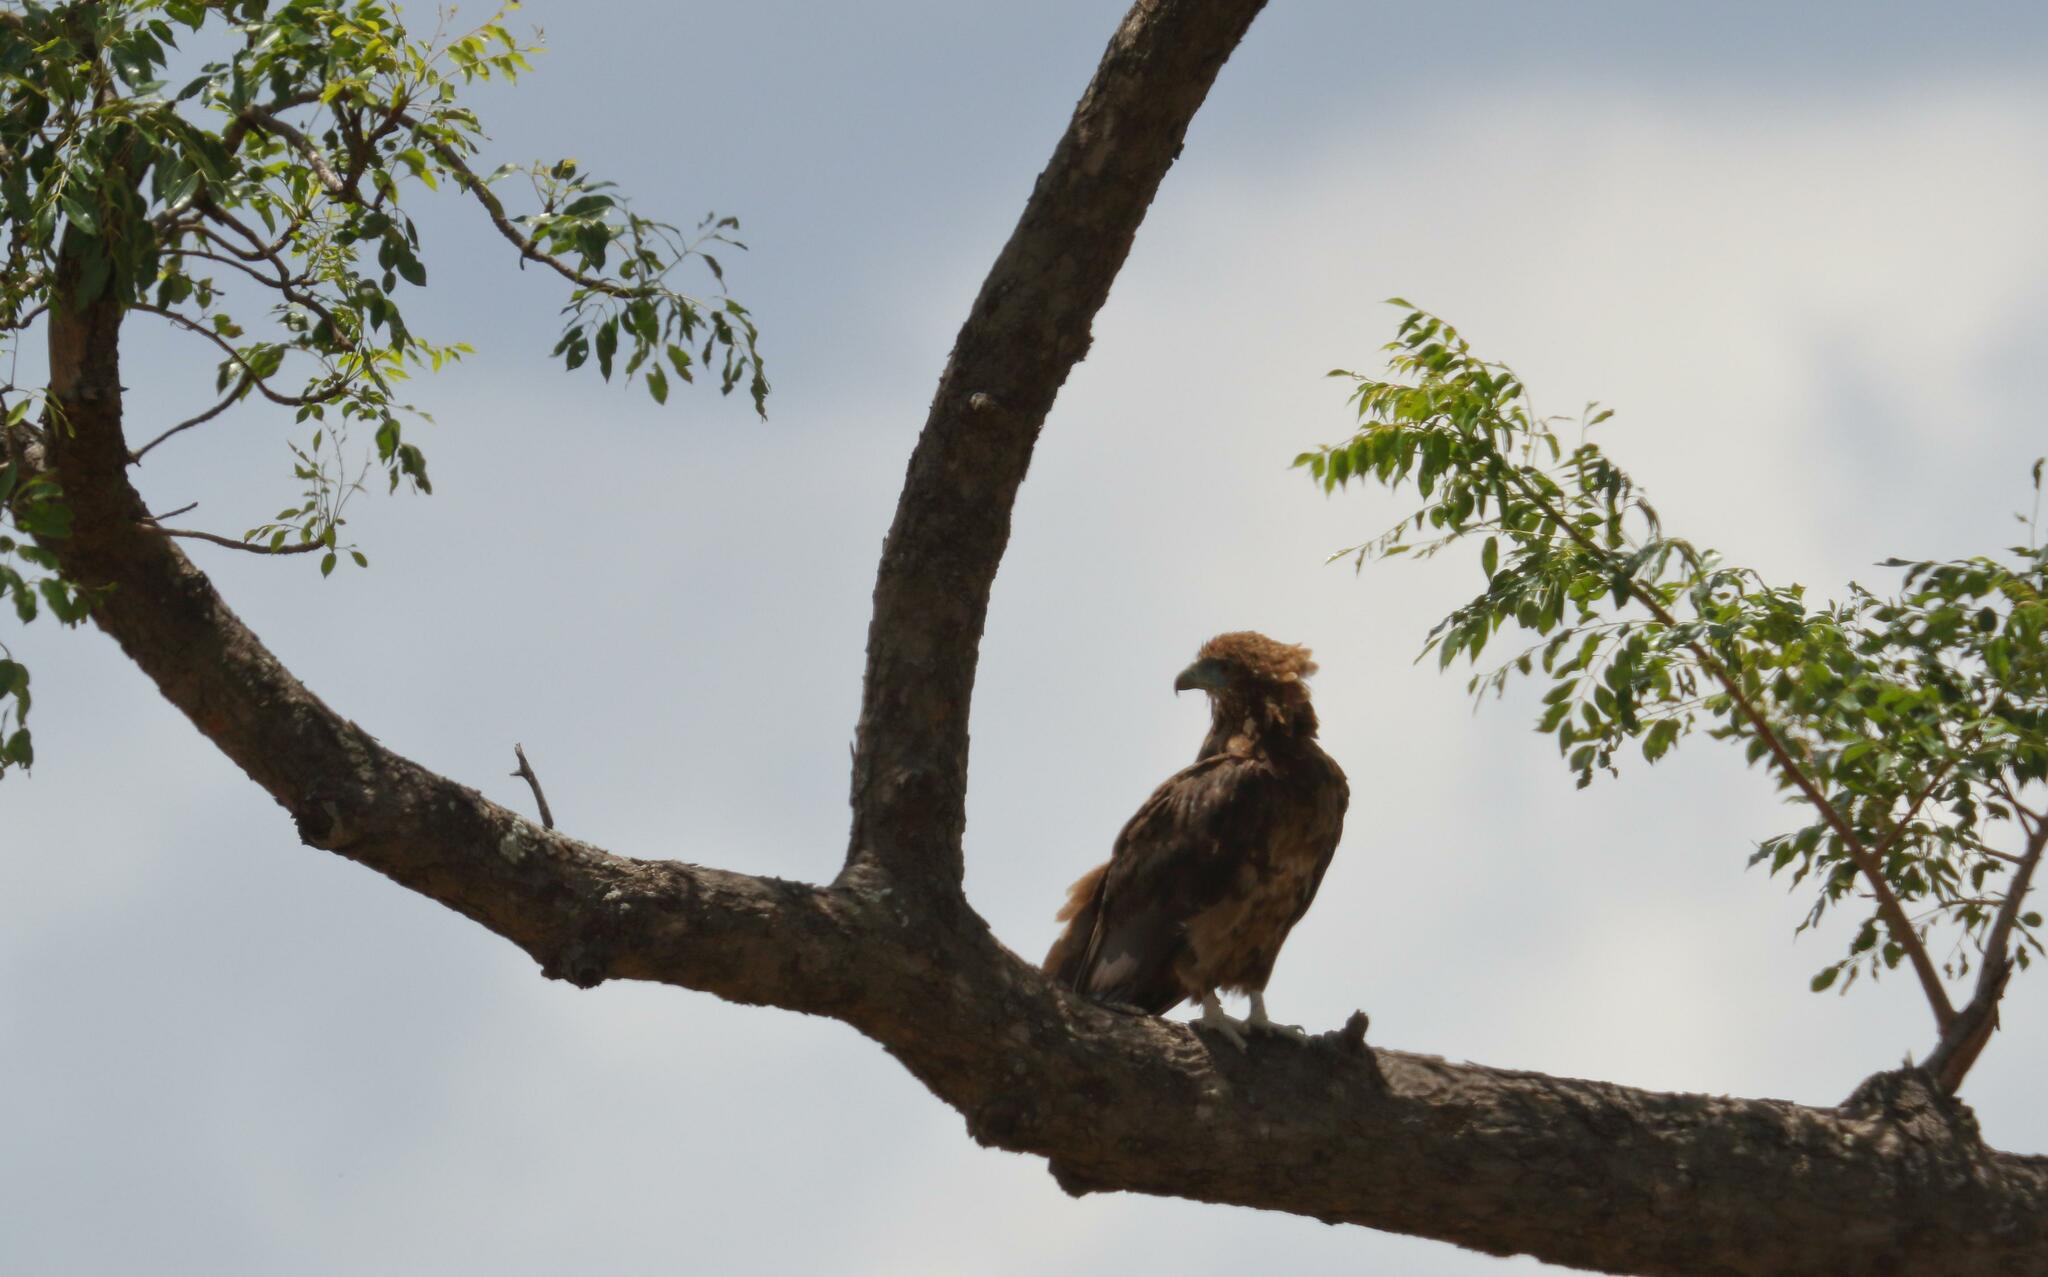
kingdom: Animalia
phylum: Chordata
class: Aves
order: Accipitriformes
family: Accipitridae
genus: Terathopius
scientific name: Terathopius ecaudatus
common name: Bateleur
